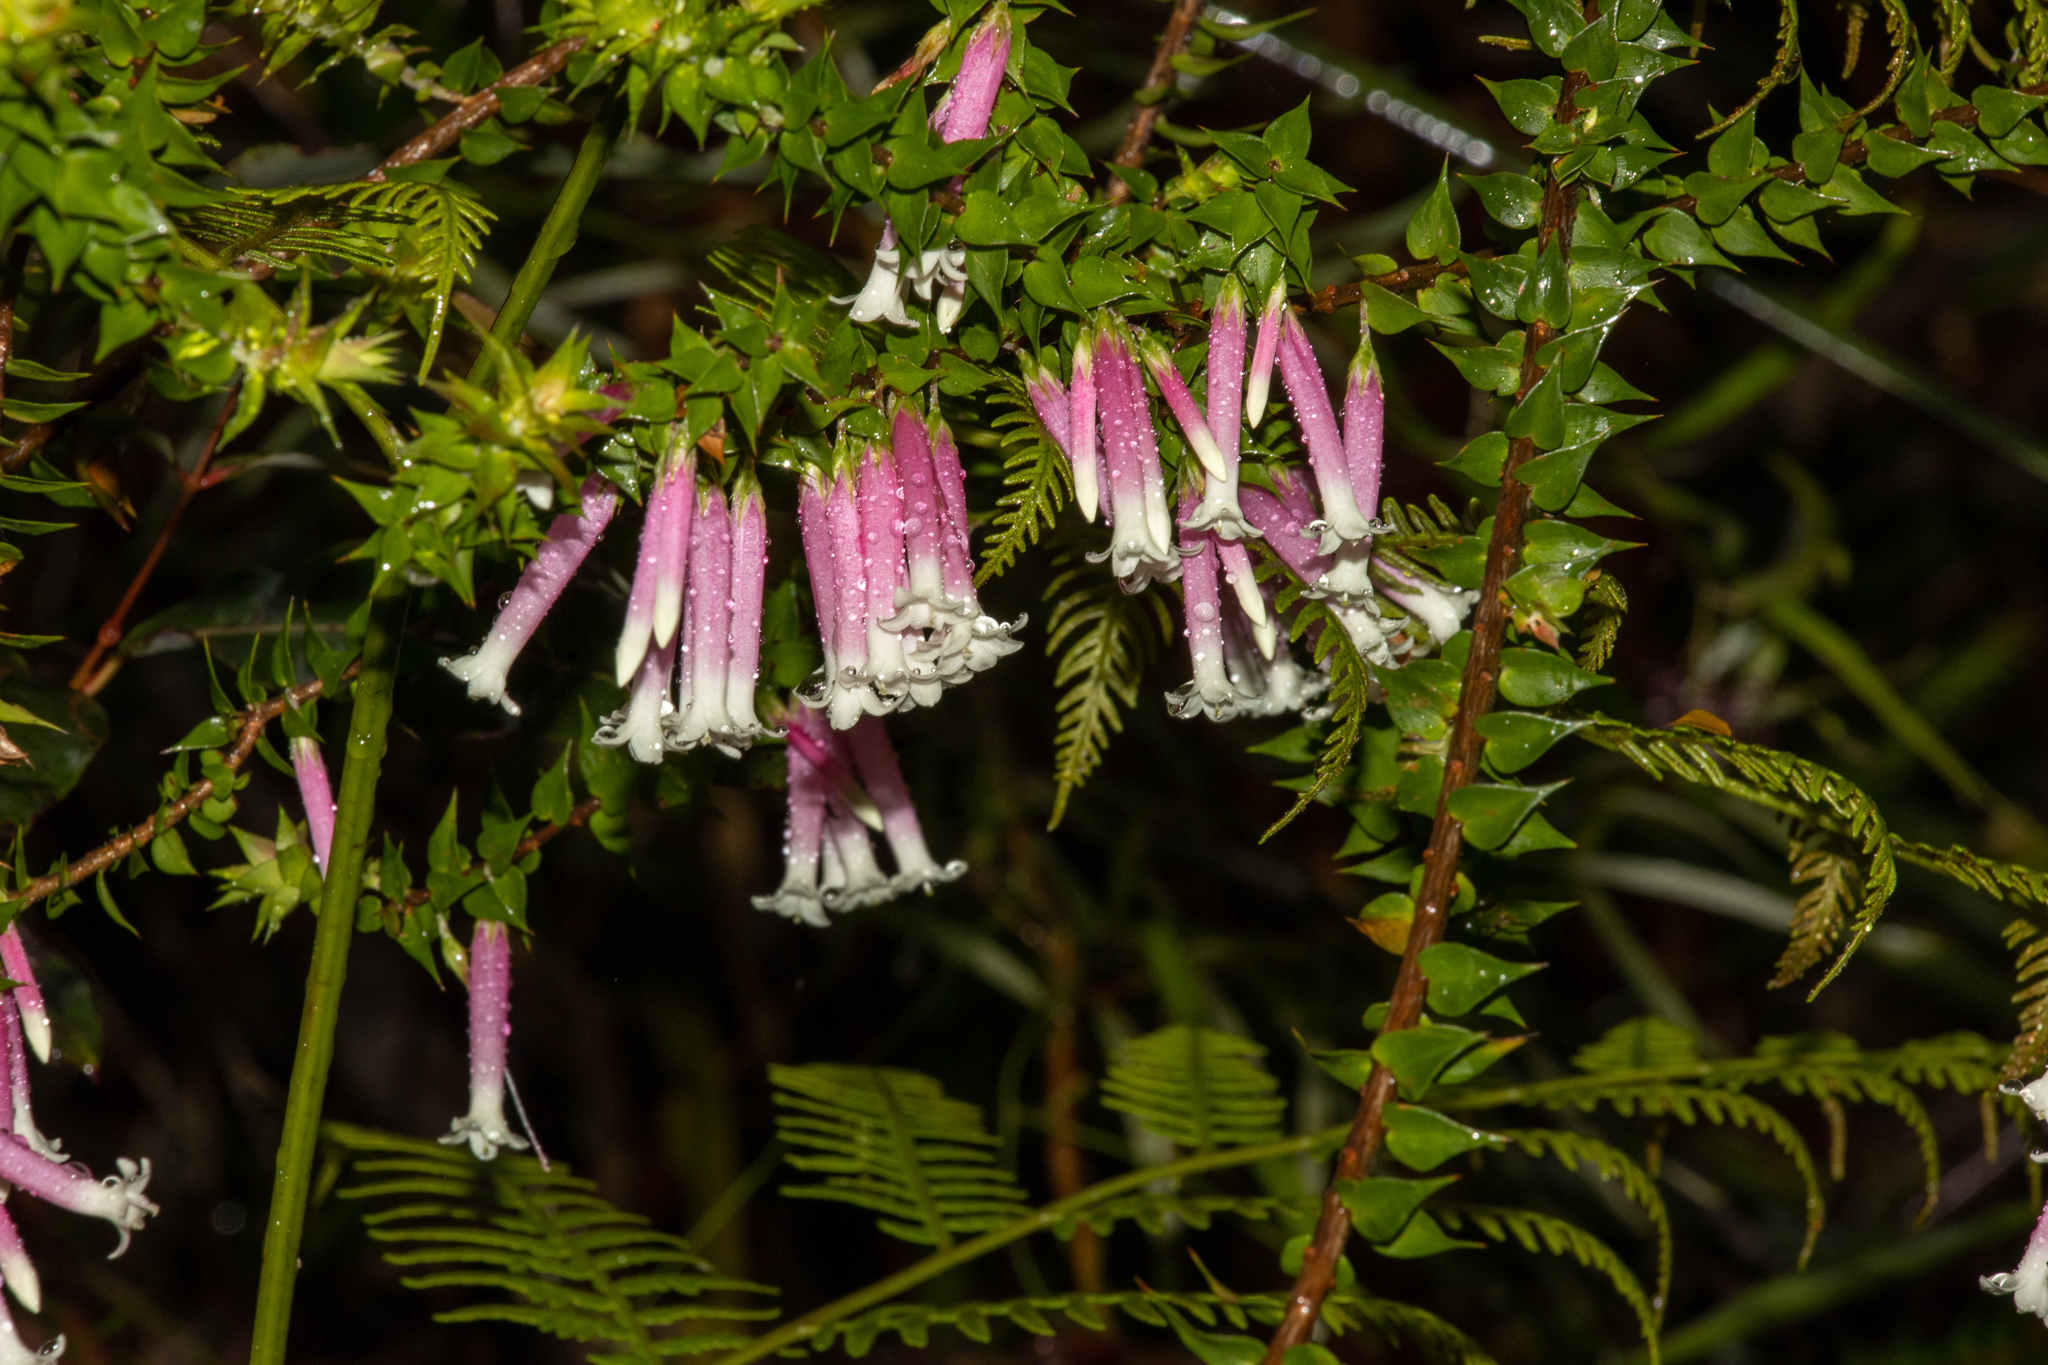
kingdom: Plantae
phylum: Tracheophyta
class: Magnoliopsida
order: Ericales
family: Ericaceae
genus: Epacris
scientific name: Epacris longiflora
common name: Fuchsia-heath
